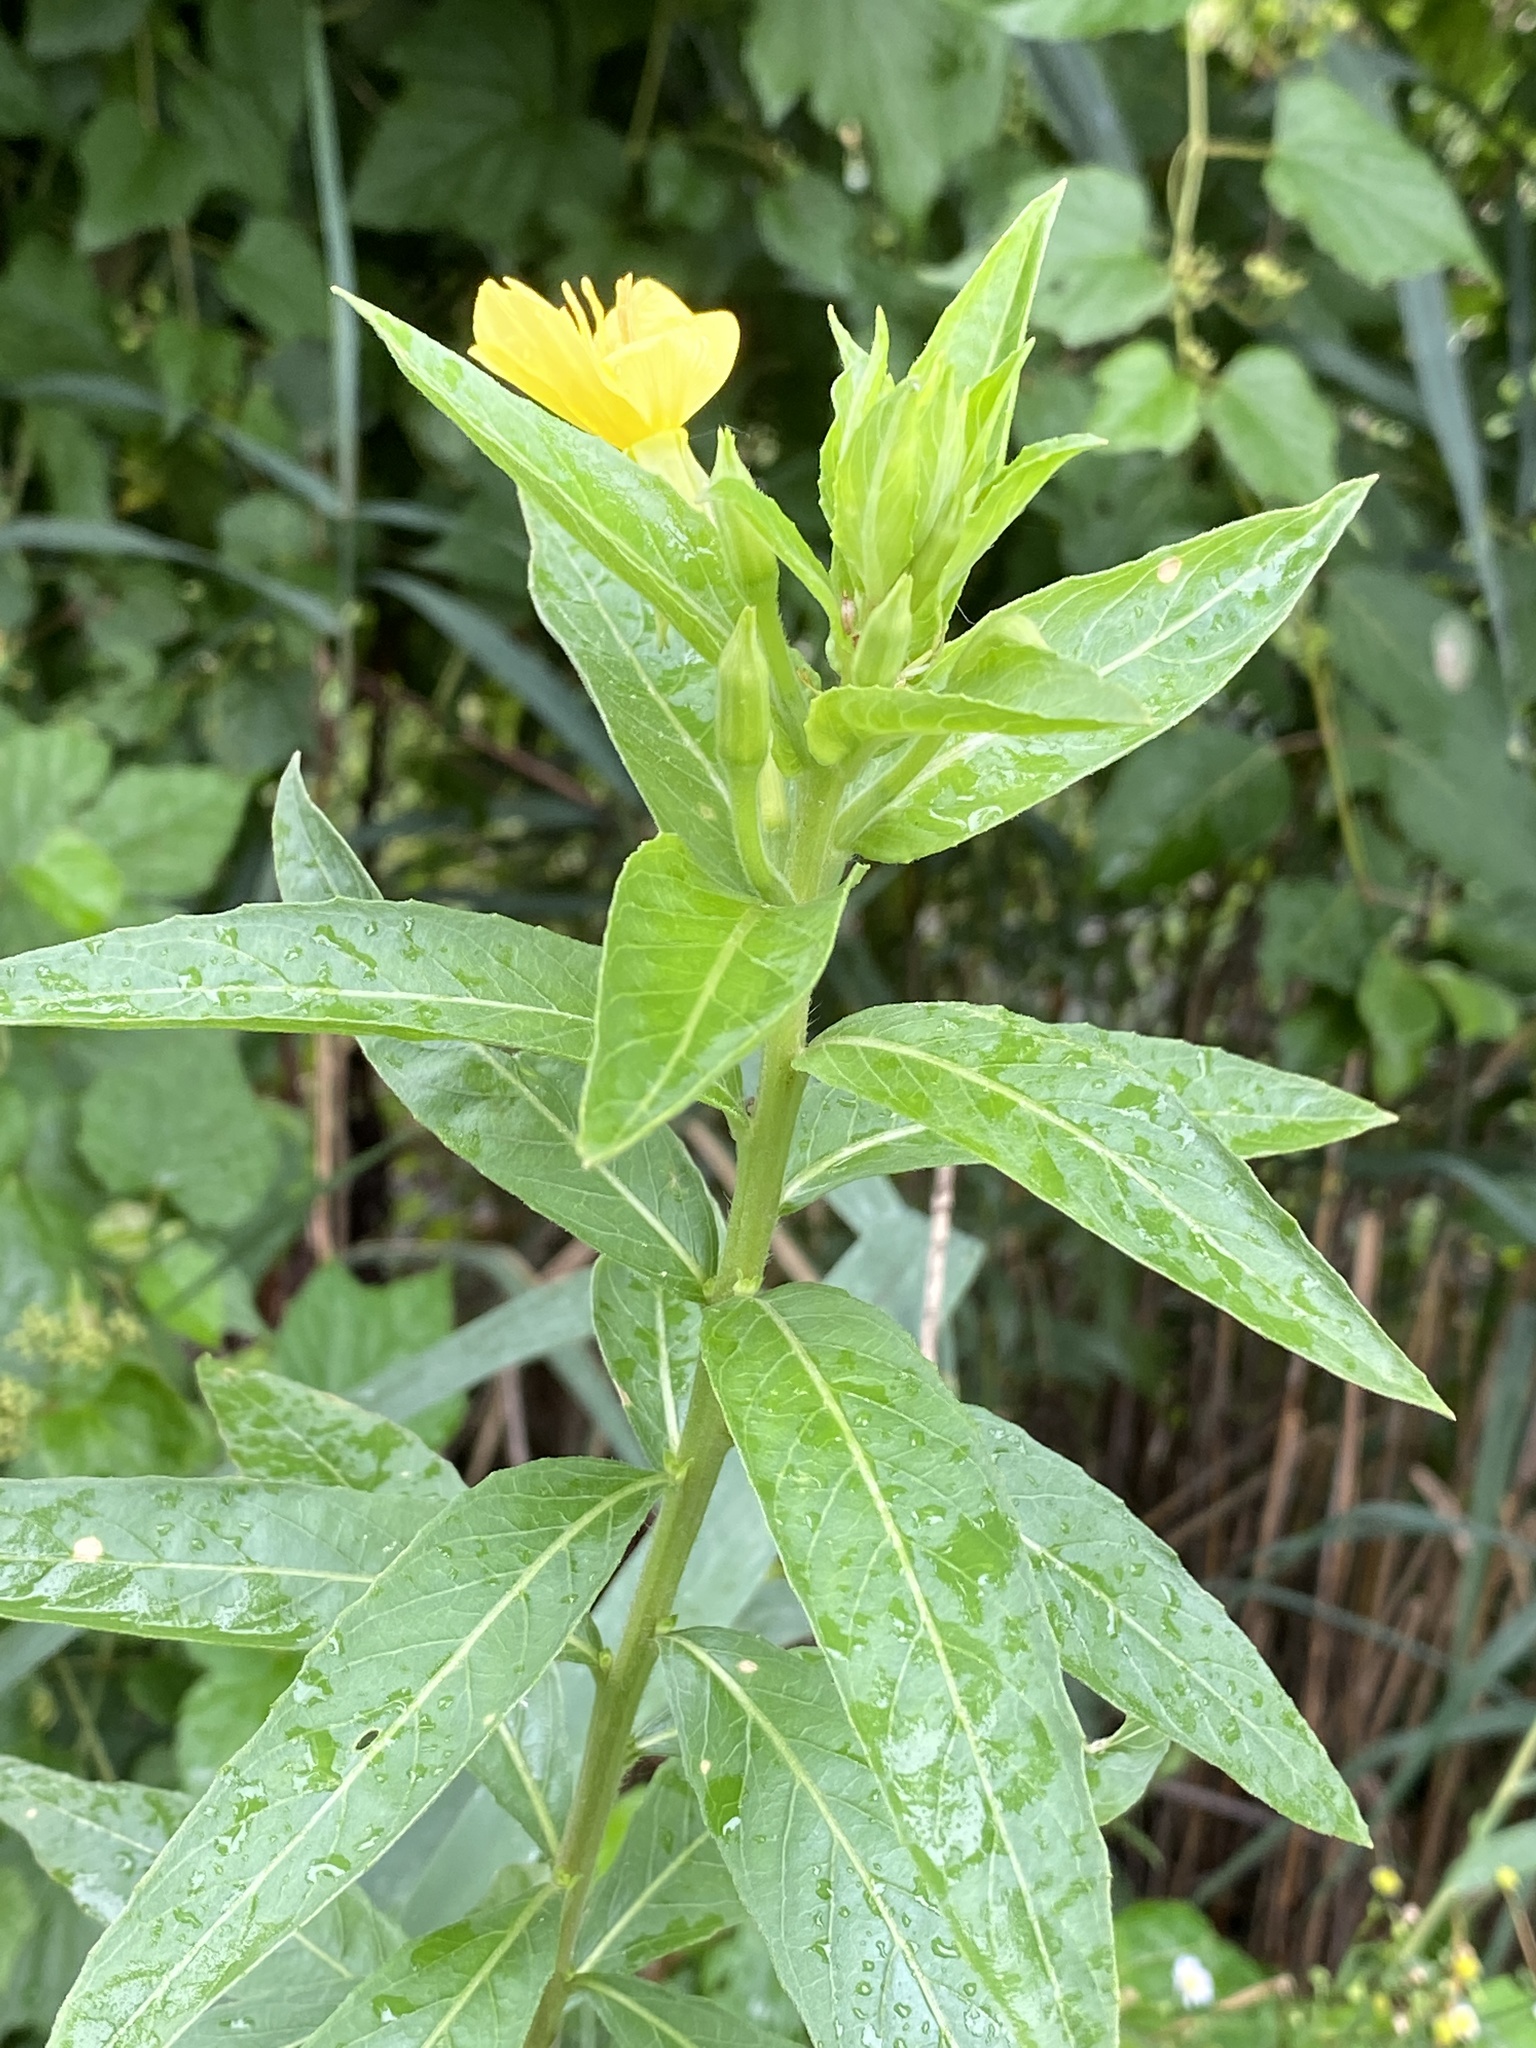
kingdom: Plantae
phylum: Tracheophyta
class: Magnoliopsida
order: Myrtales
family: Onagraceae
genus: Oenothera
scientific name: Oenothera biennis
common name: Common evening-primrose
